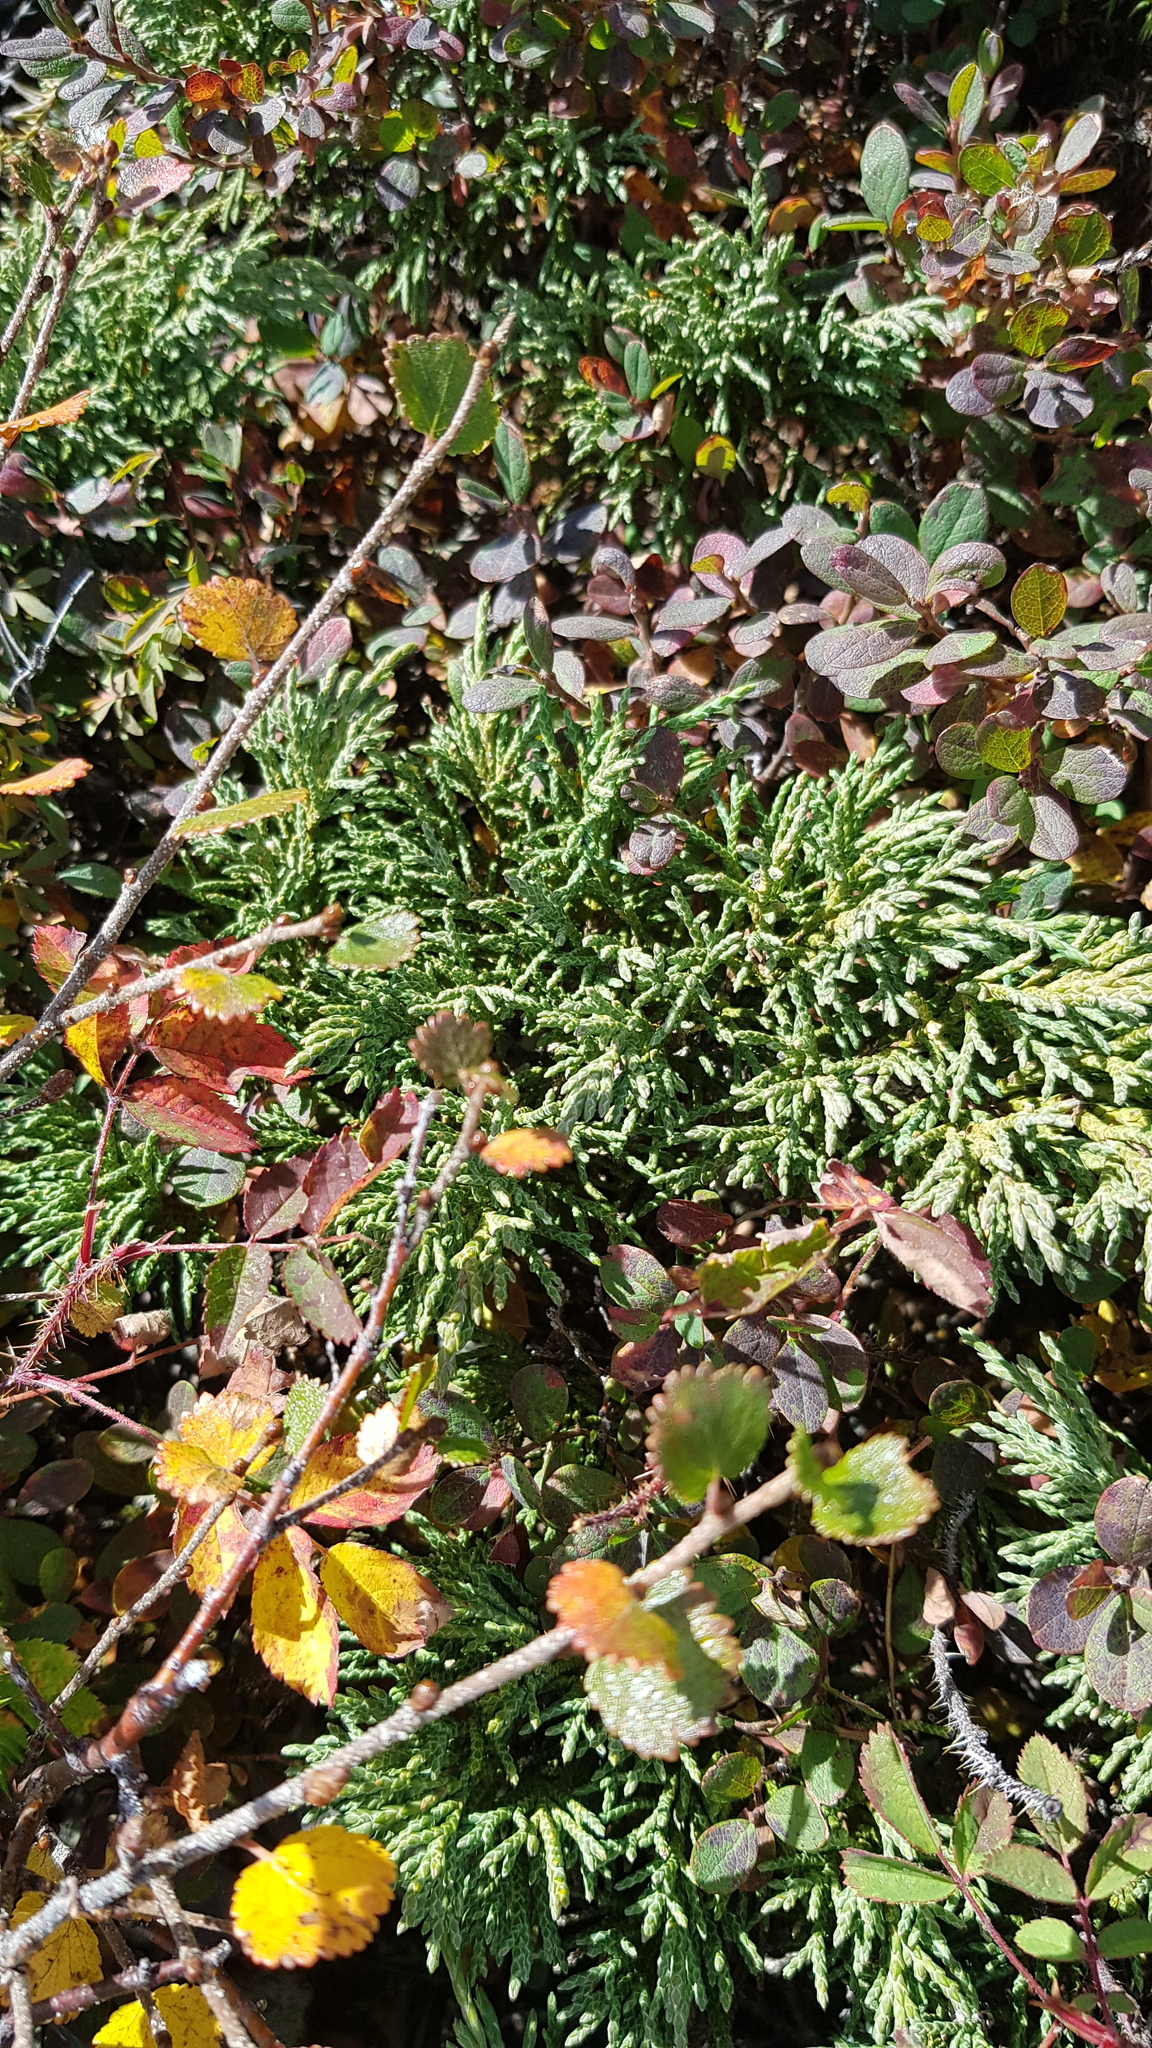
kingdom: Plantae
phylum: Tracheophyta
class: Pinopsida
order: Pinales
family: Cupressaceae
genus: Juniperus
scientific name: Juniperus pseudosabina
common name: Turkestan juniper
